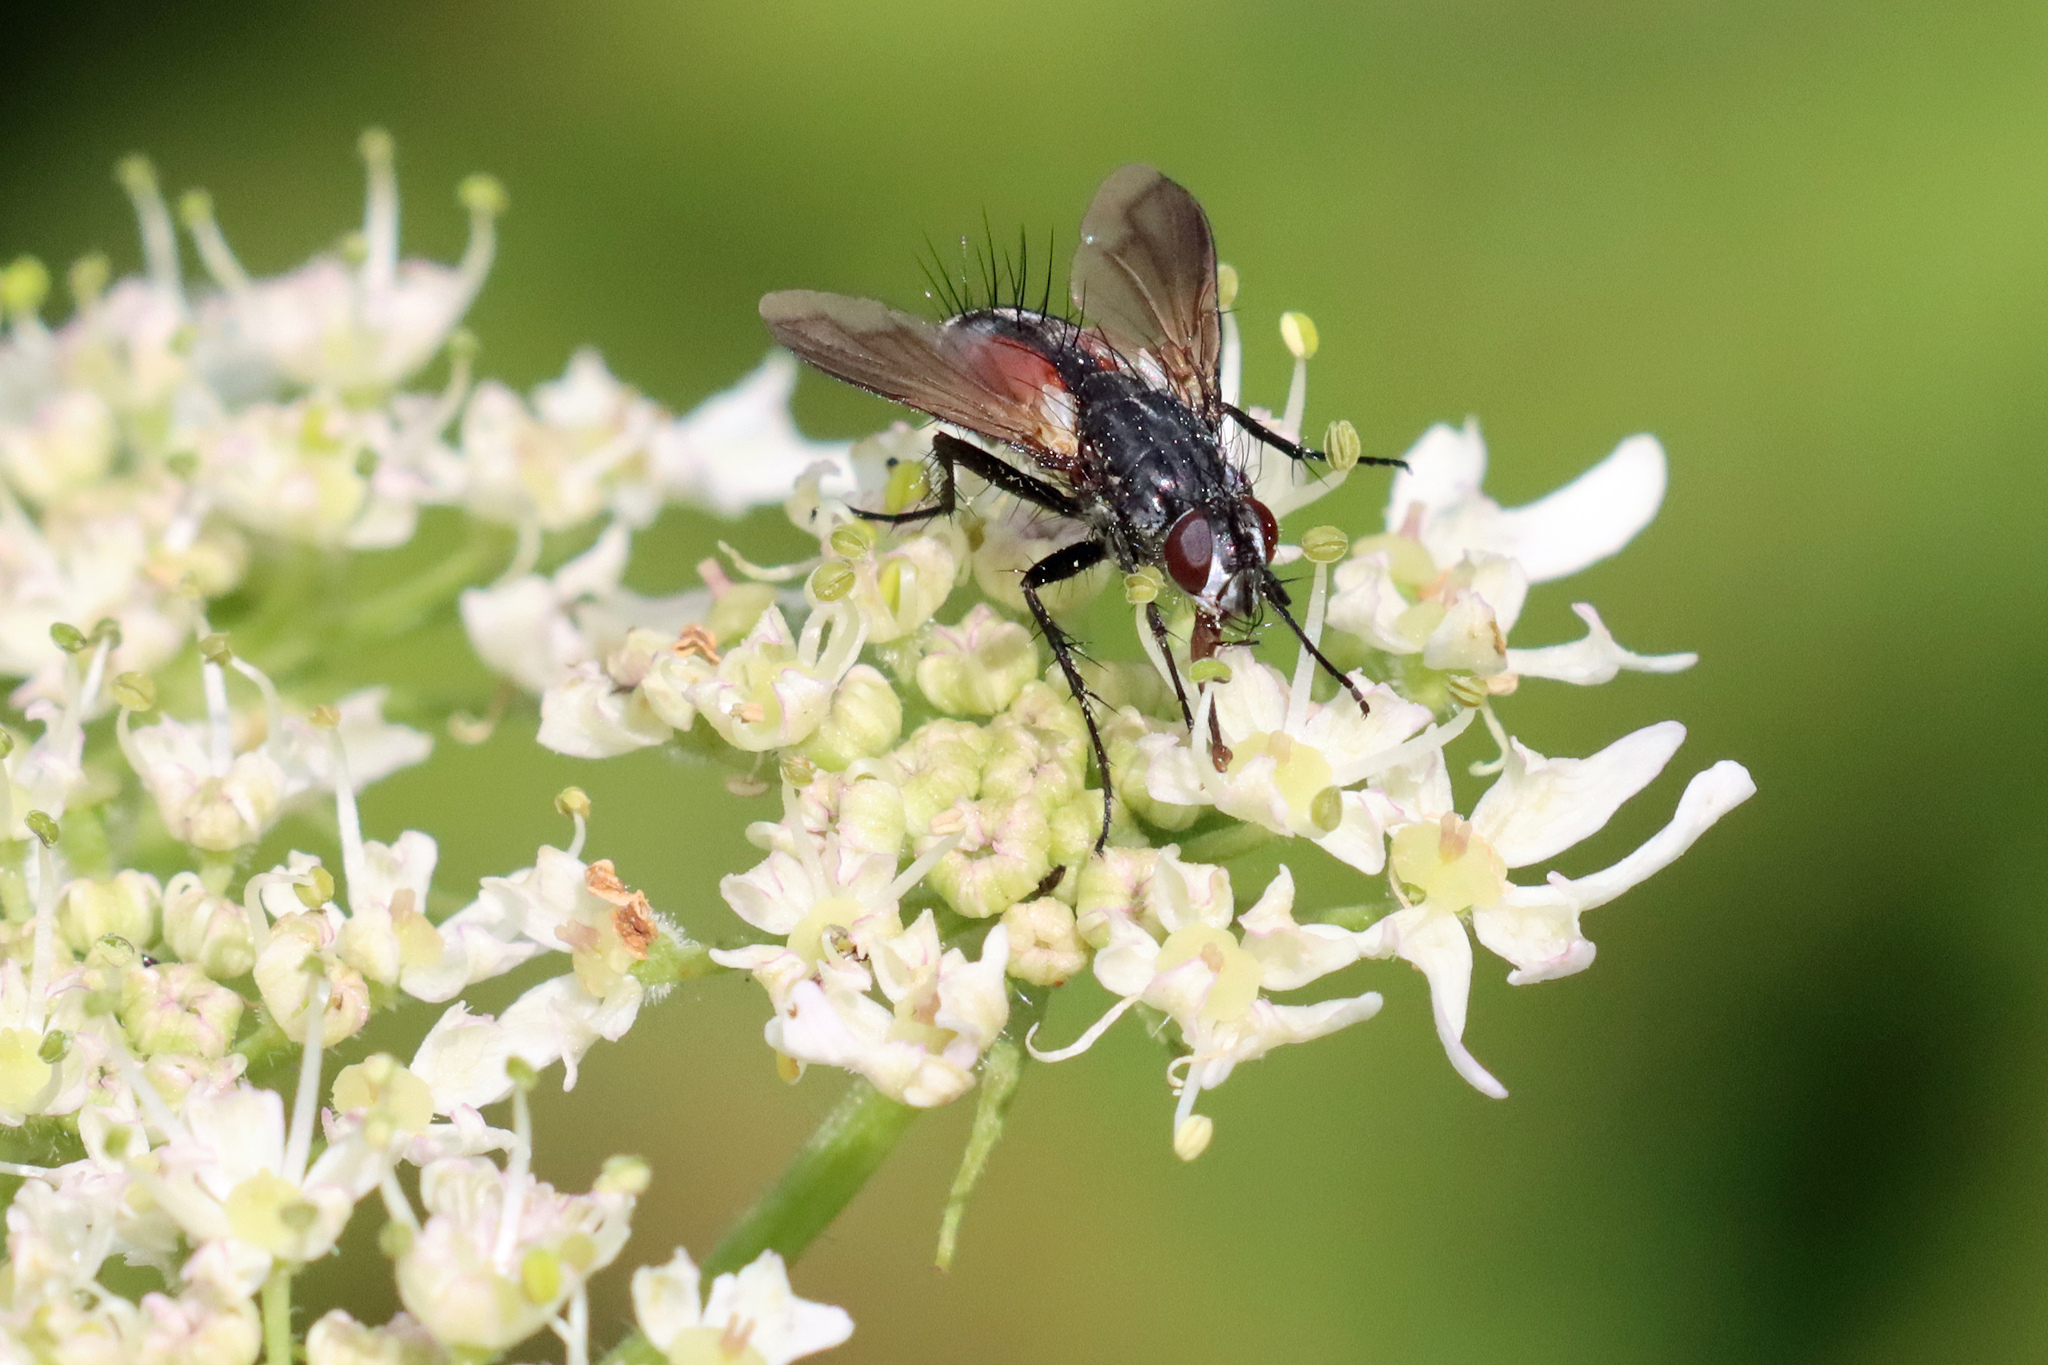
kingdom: Animalia
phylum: Arthropoda
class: Insecta
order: Diptera
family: Tachinidae
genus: Eriothrix
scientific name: Eriothrix rufomaculatus
